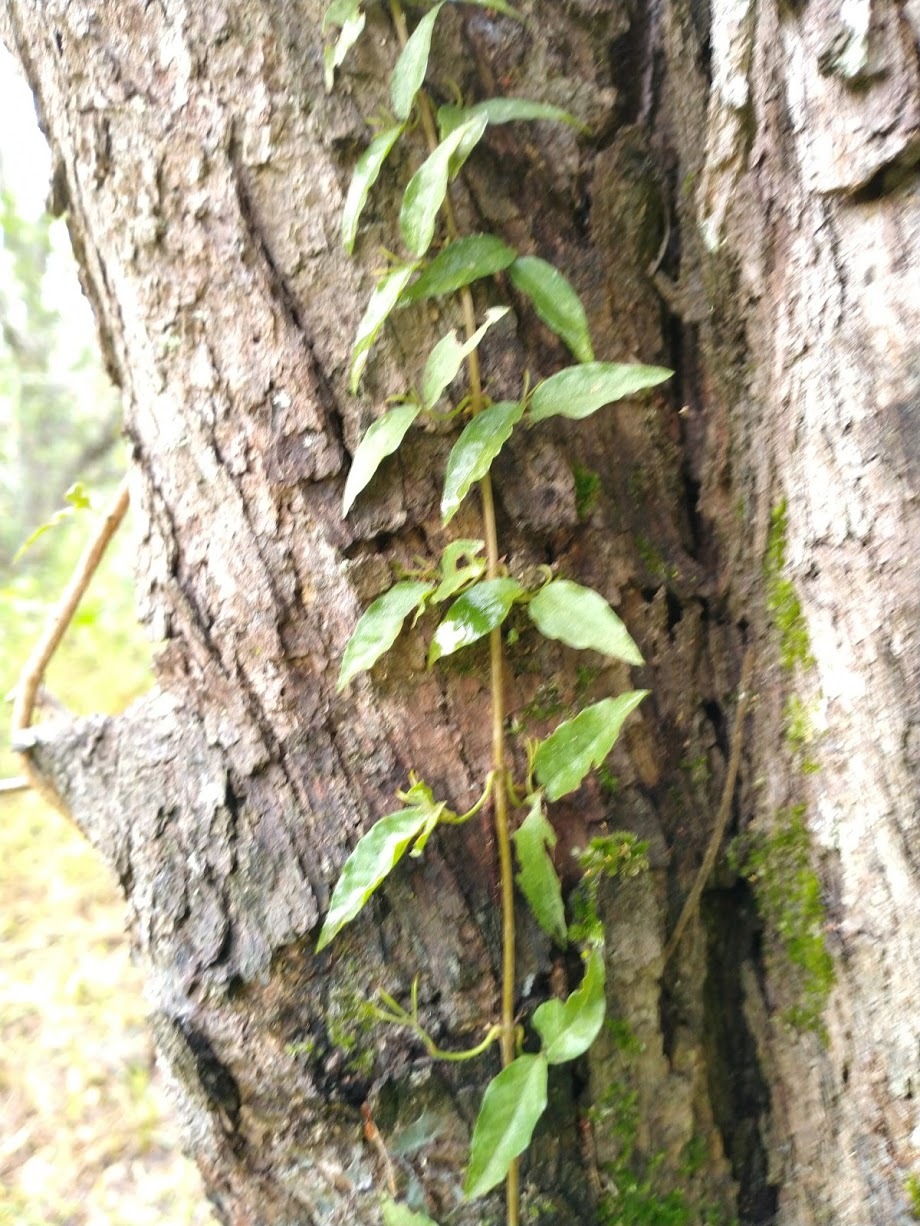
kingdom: Plantae
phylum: Tracheophyta
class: Magnoliopsida
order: Lamiales
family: Bignoniaceae
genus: Dolichandra
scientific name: Dolichandra unguis-cati
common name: Catclaw vine
